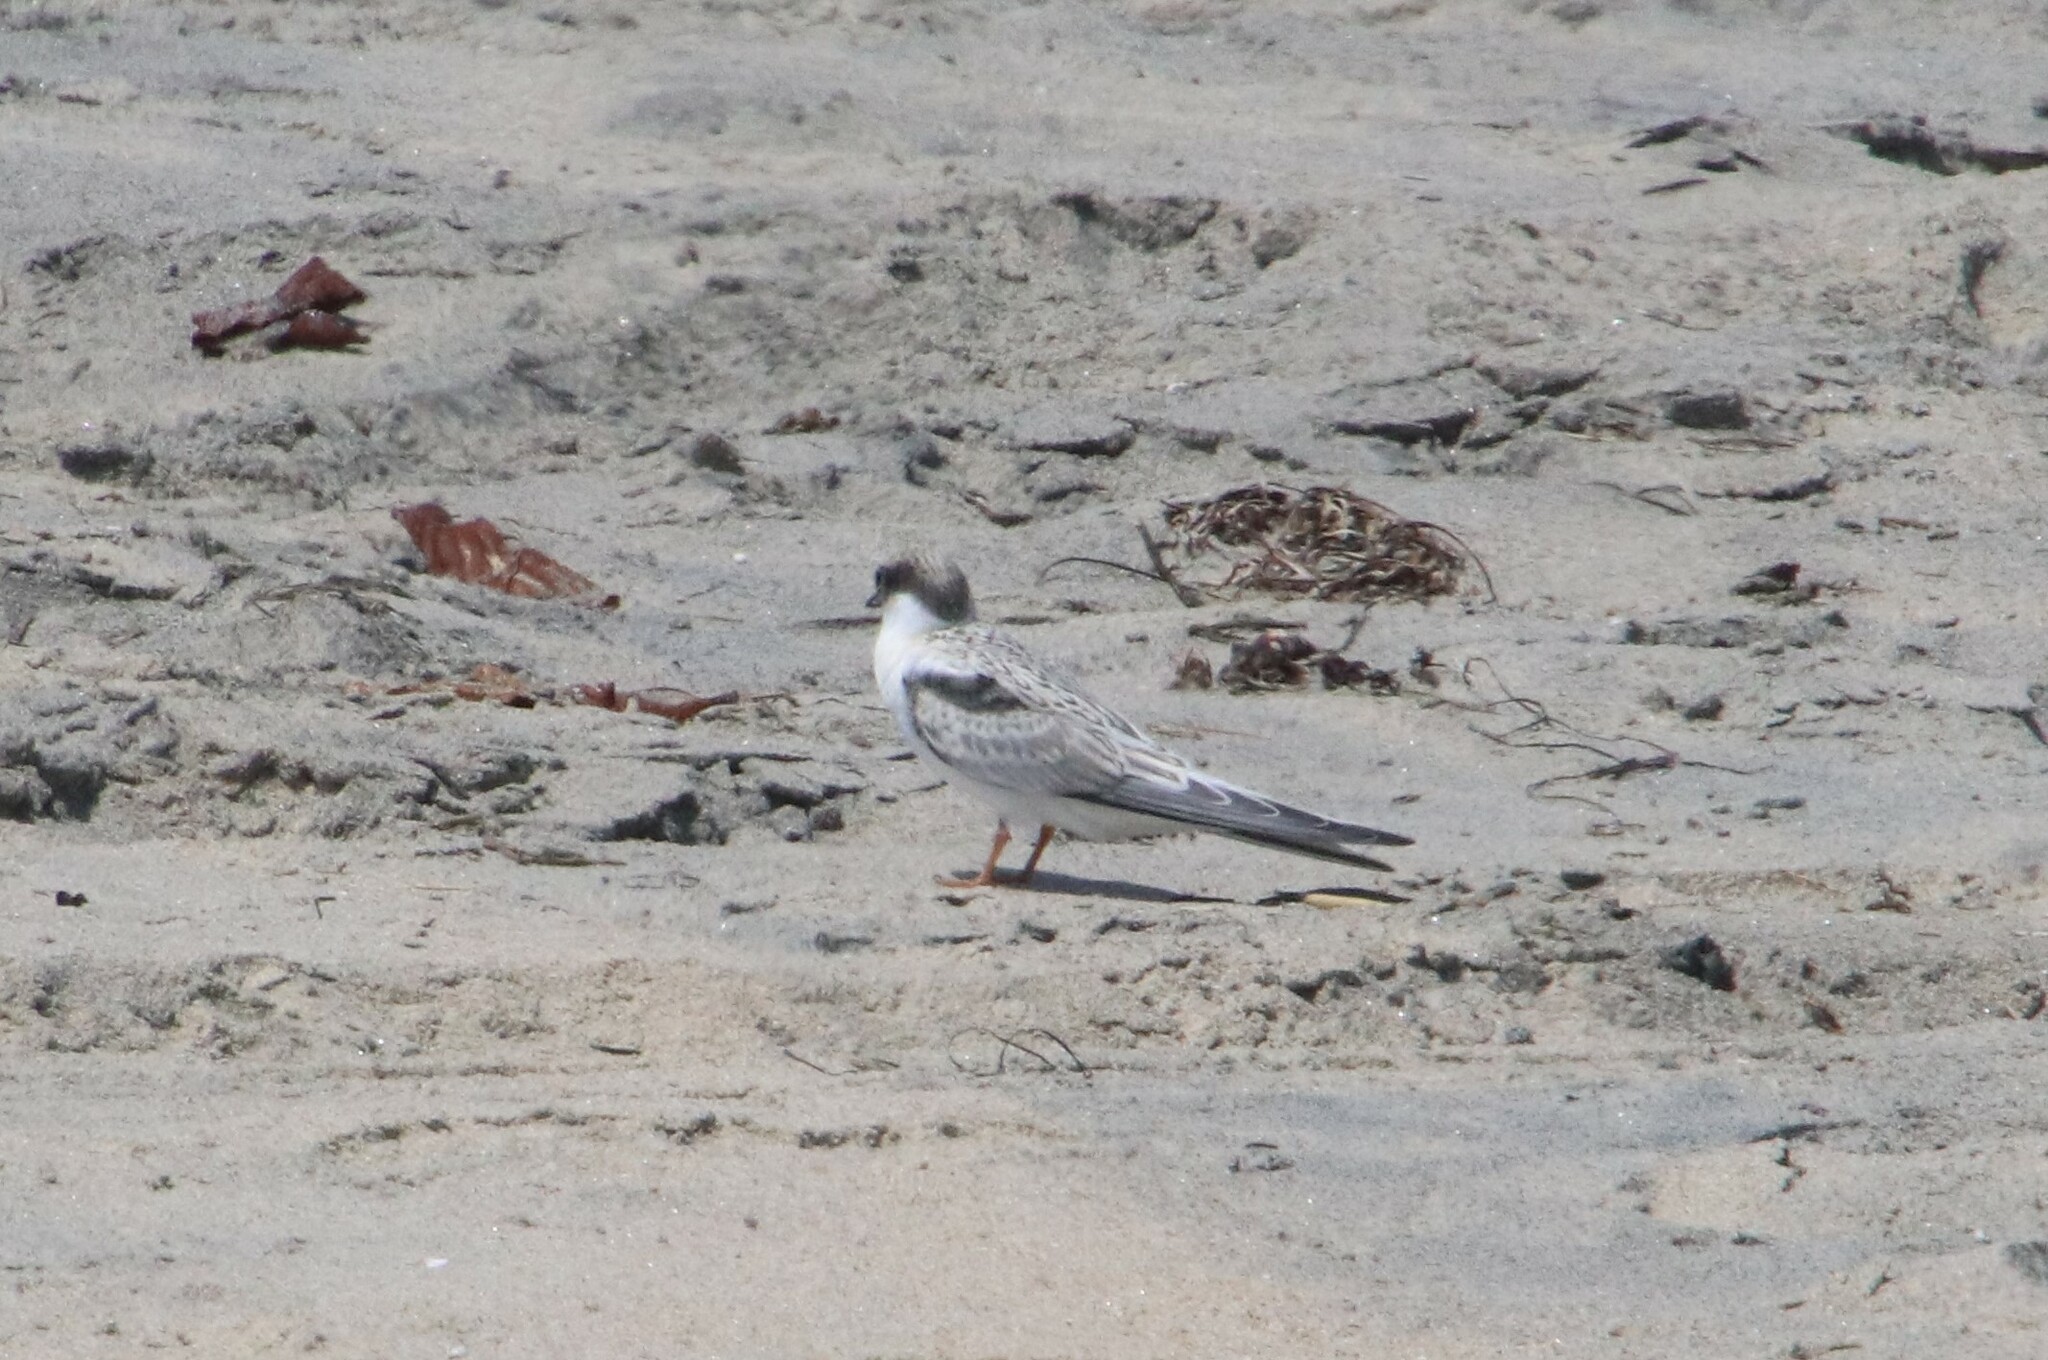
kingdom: Animalia
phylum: Chordata
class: Aves
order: Charadriiformes
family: Laridae
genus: Sternula
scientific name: Sternula antillarum
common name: Least tern
